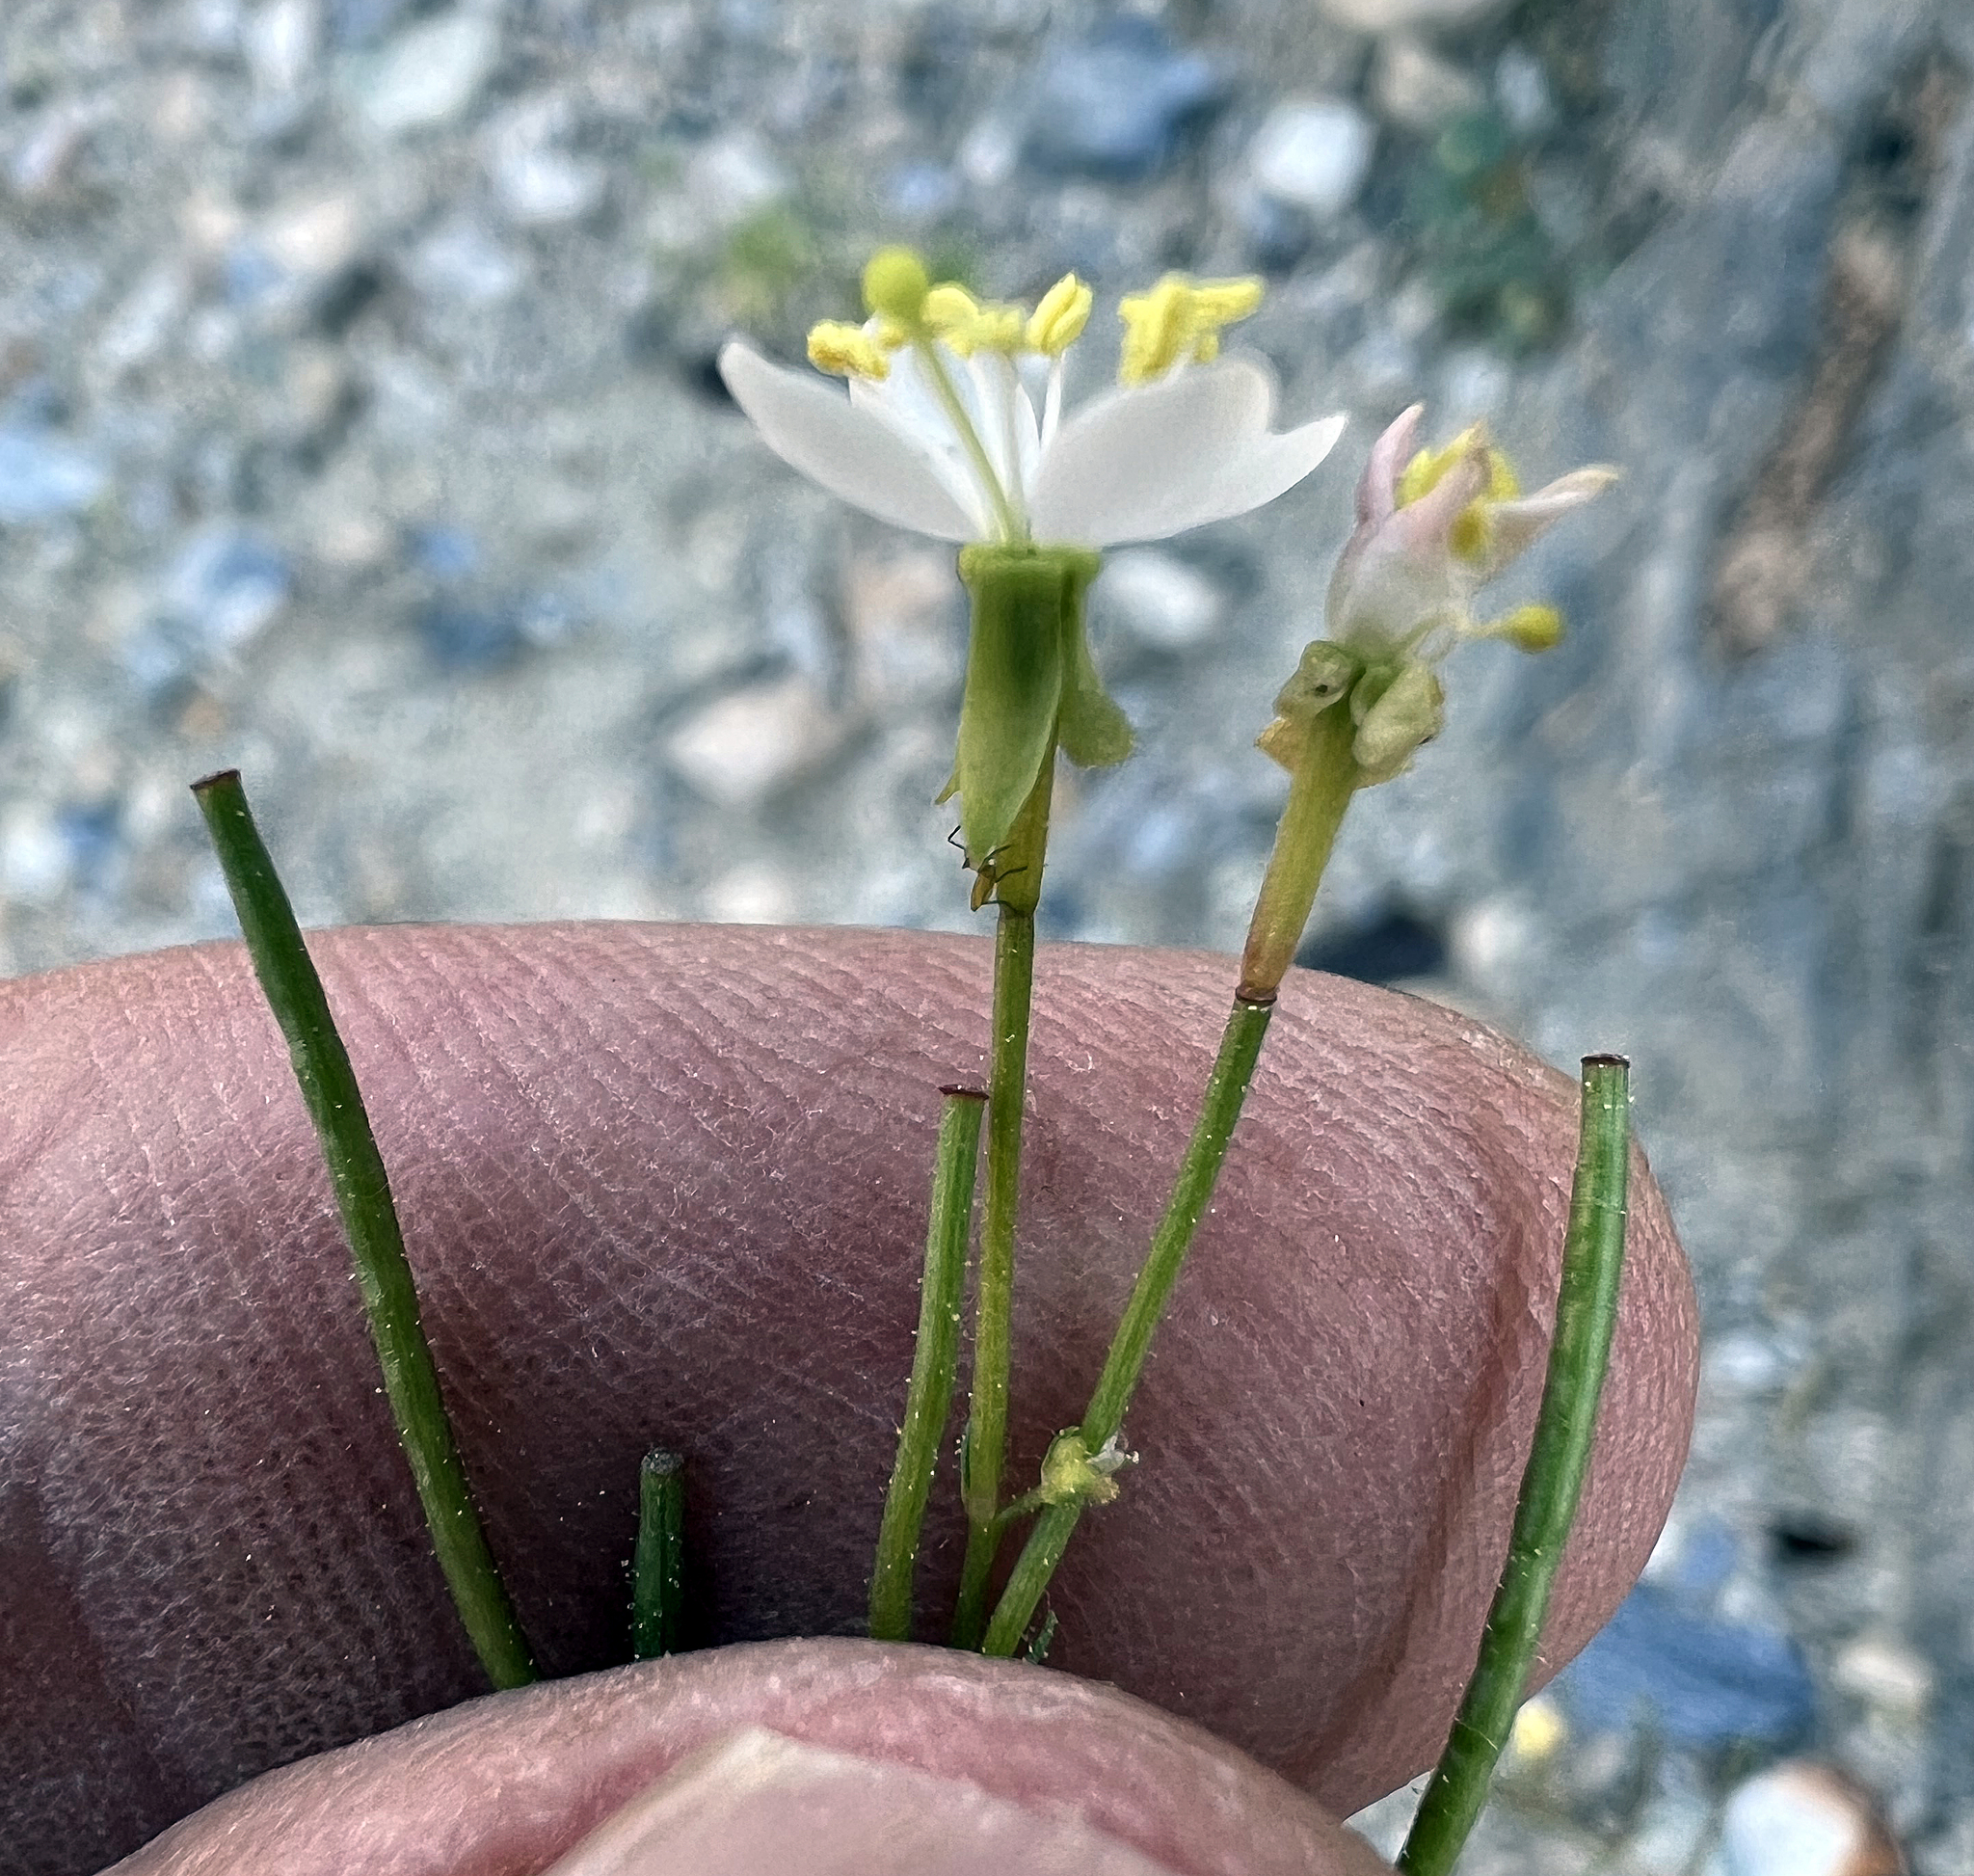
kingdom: Plantae
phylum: Tracheophyta
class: Magnoliopsida
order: Myrtales
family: Onagraceae
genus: Eremothera
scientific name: Eremothera refracta
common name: Narrowleaf suncup
